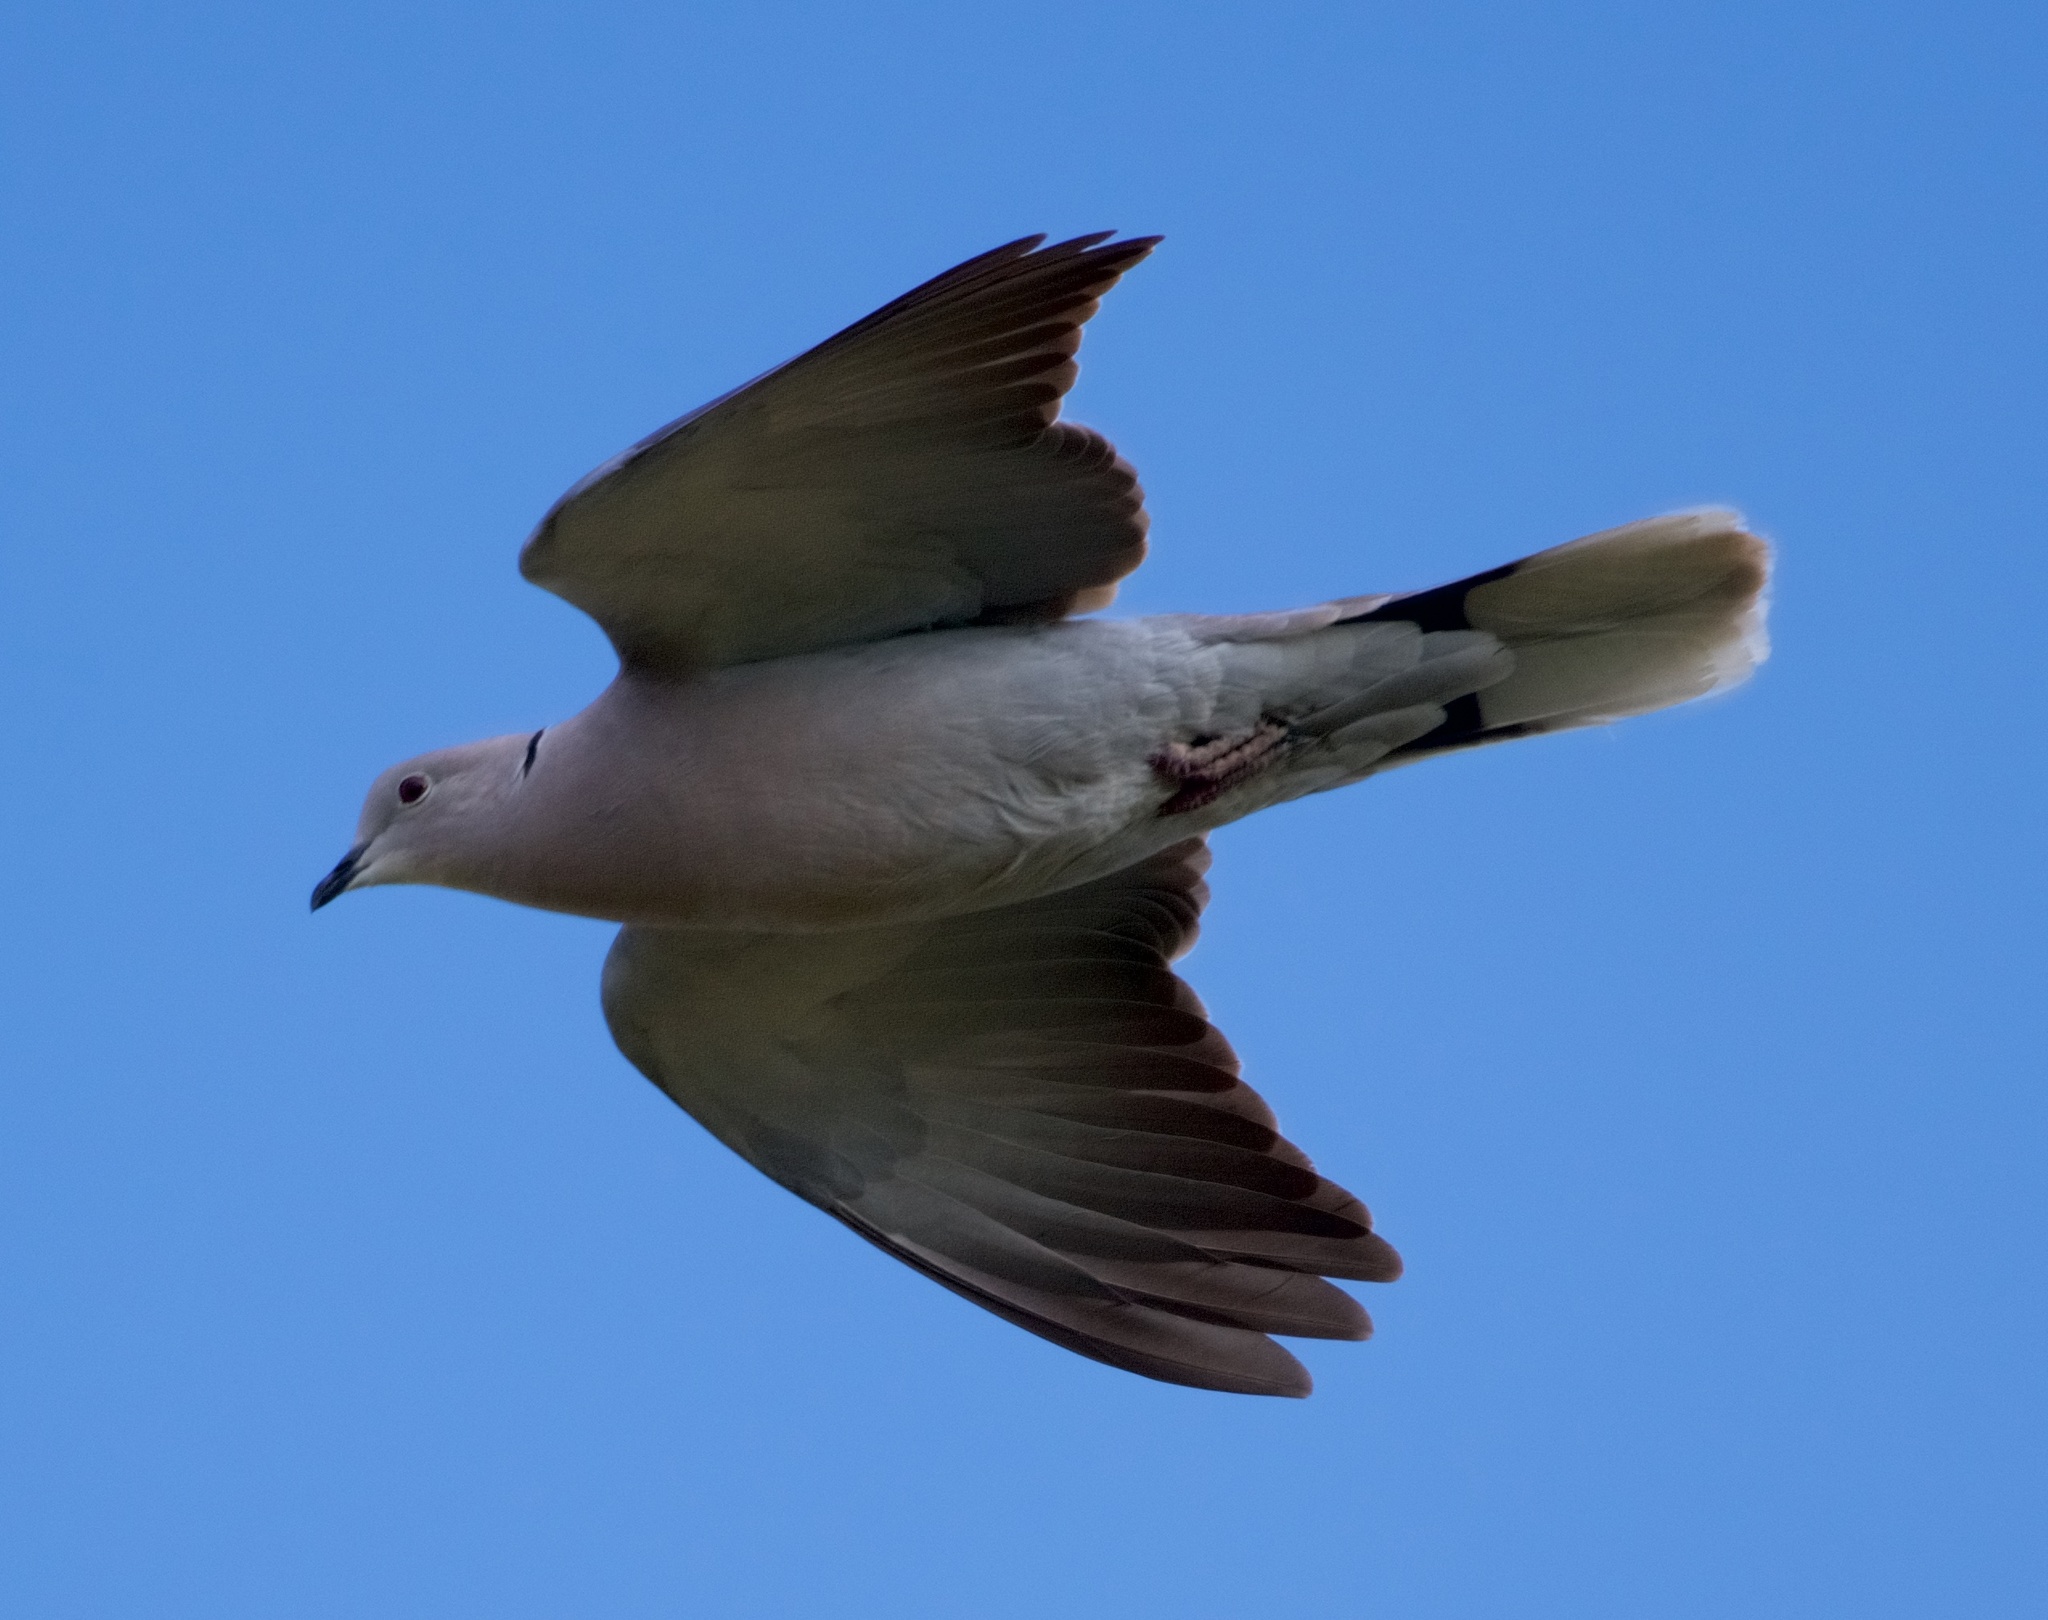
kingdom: Animalia
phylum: Chordata
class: Aves
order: Columbiformes
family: Columbidae
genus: Streptopelia
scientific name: Streptopelia decaocto
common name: Eurasian collared dove
